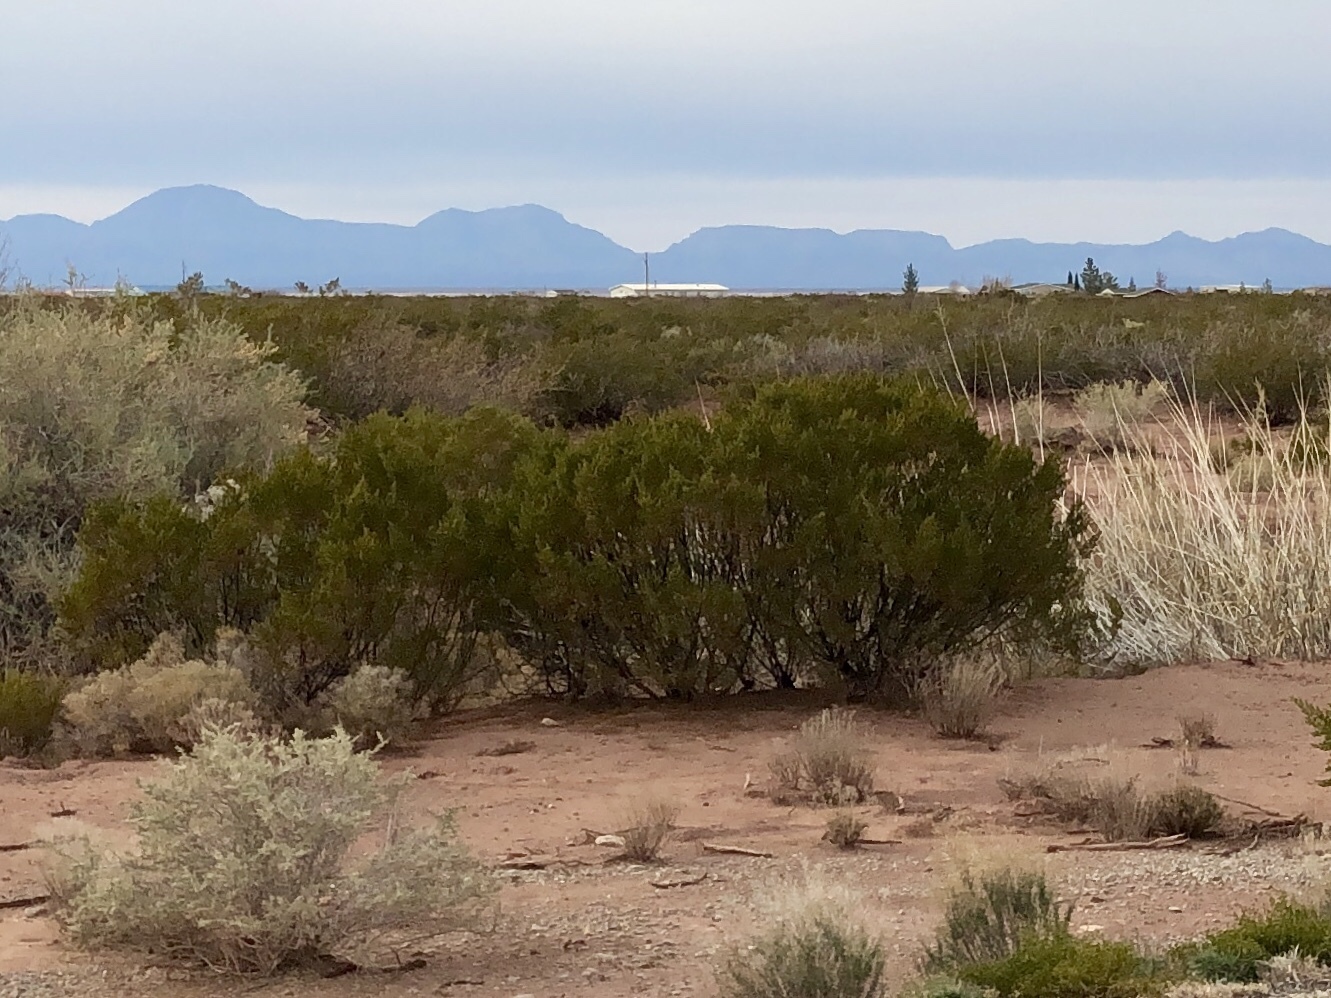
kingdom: Plantae
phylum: Tracheophyta
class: Magnoliopsida
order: Zygophyllales
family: Zygophyllaceae
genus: Larrea
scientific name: Larrea tridentata
